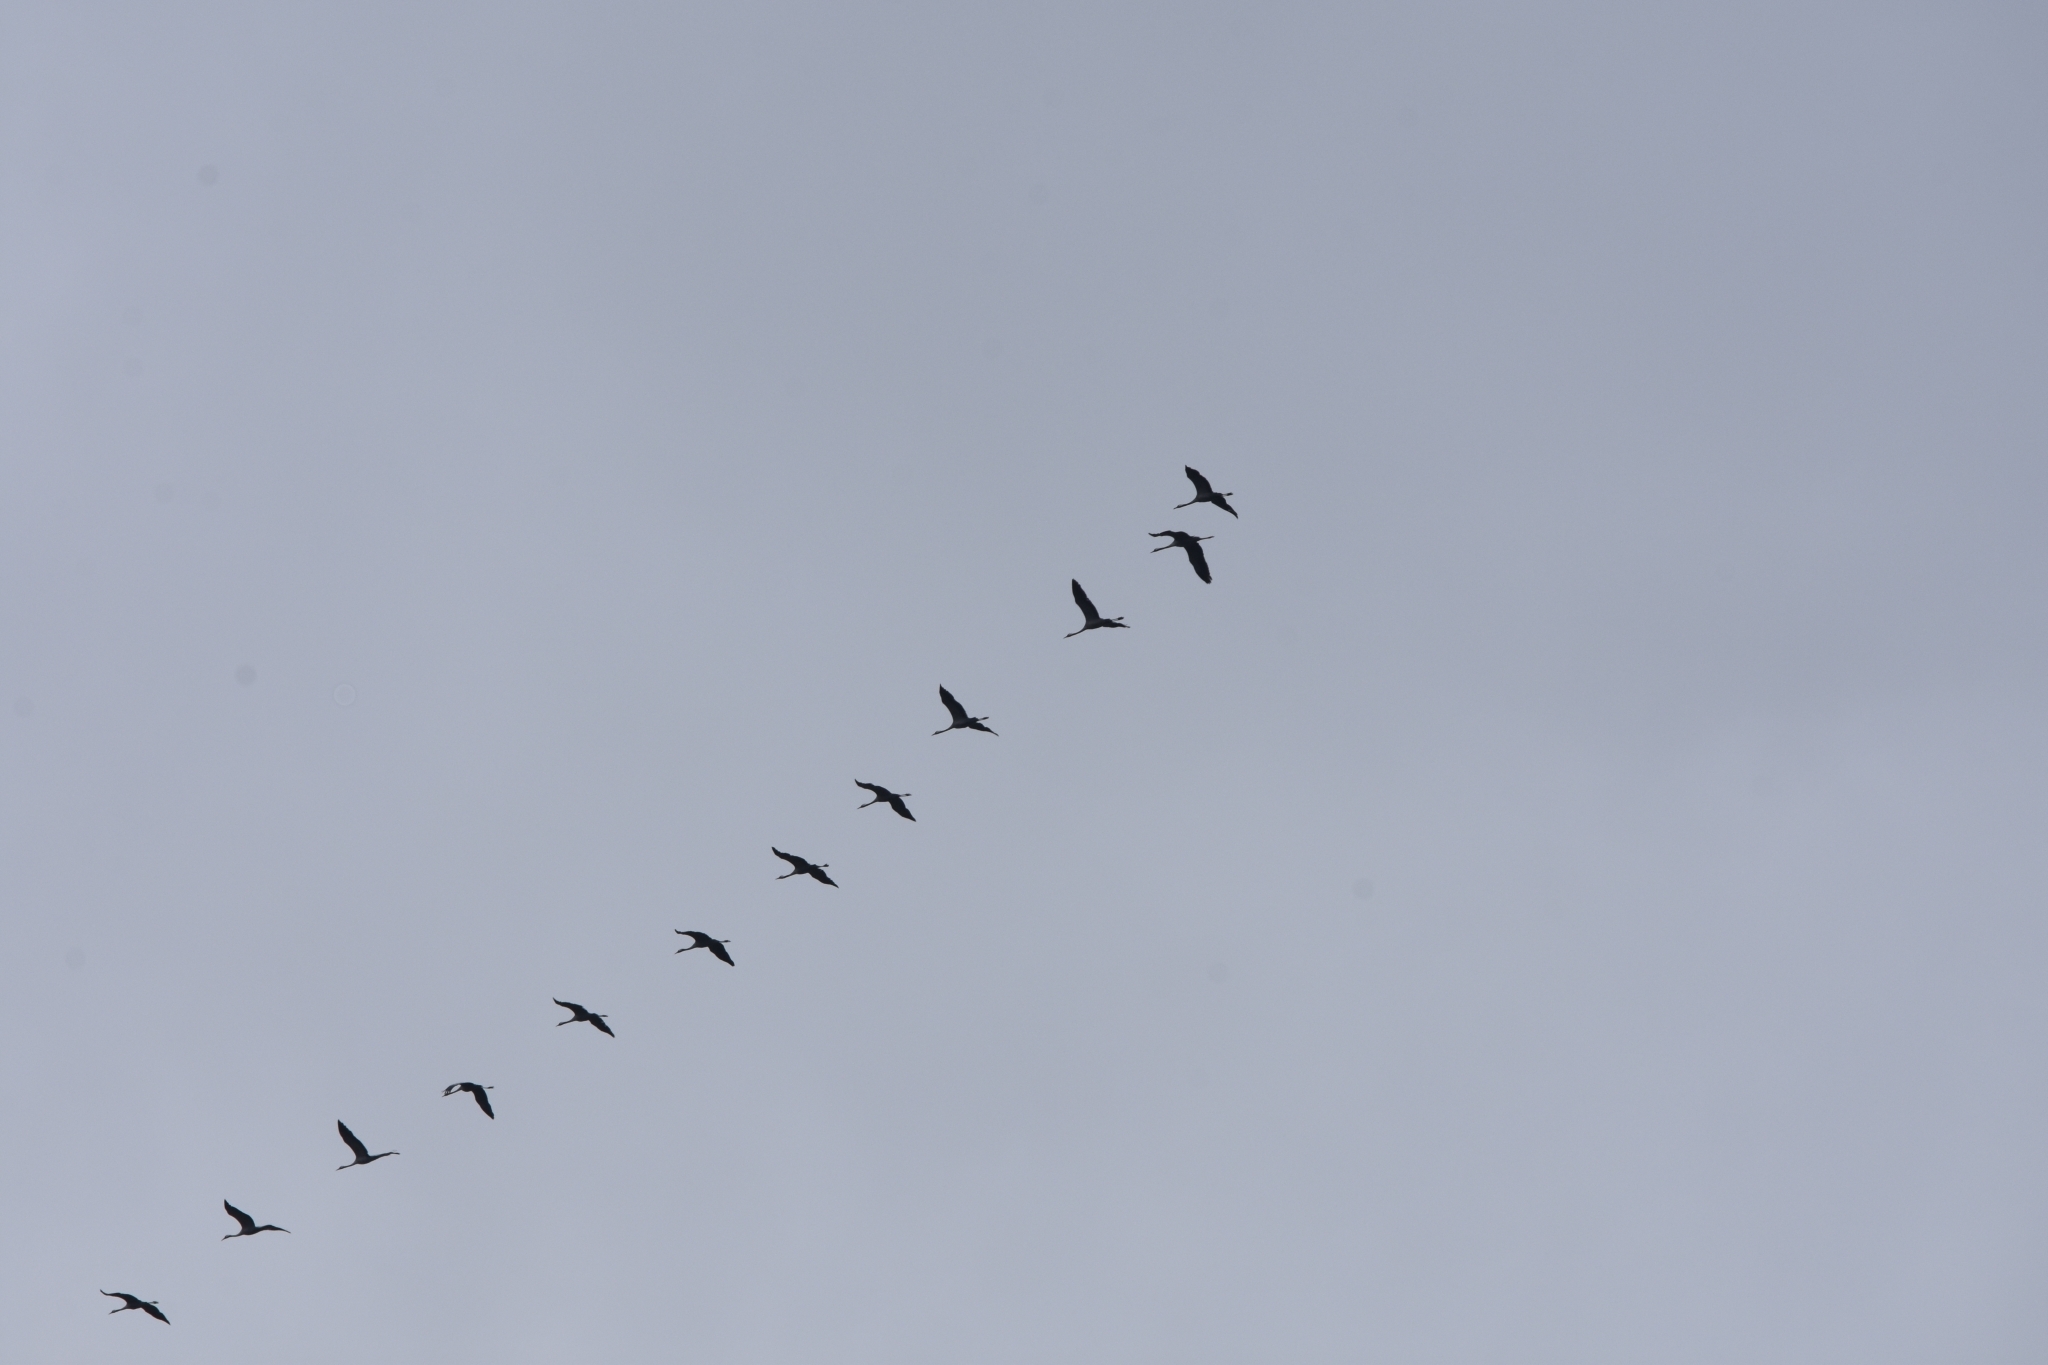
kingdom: Animalia
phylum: Chordata
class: Aves
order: Gruiformes
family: Gruidae
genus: Grus
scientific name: Grus grus
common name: Common crane
